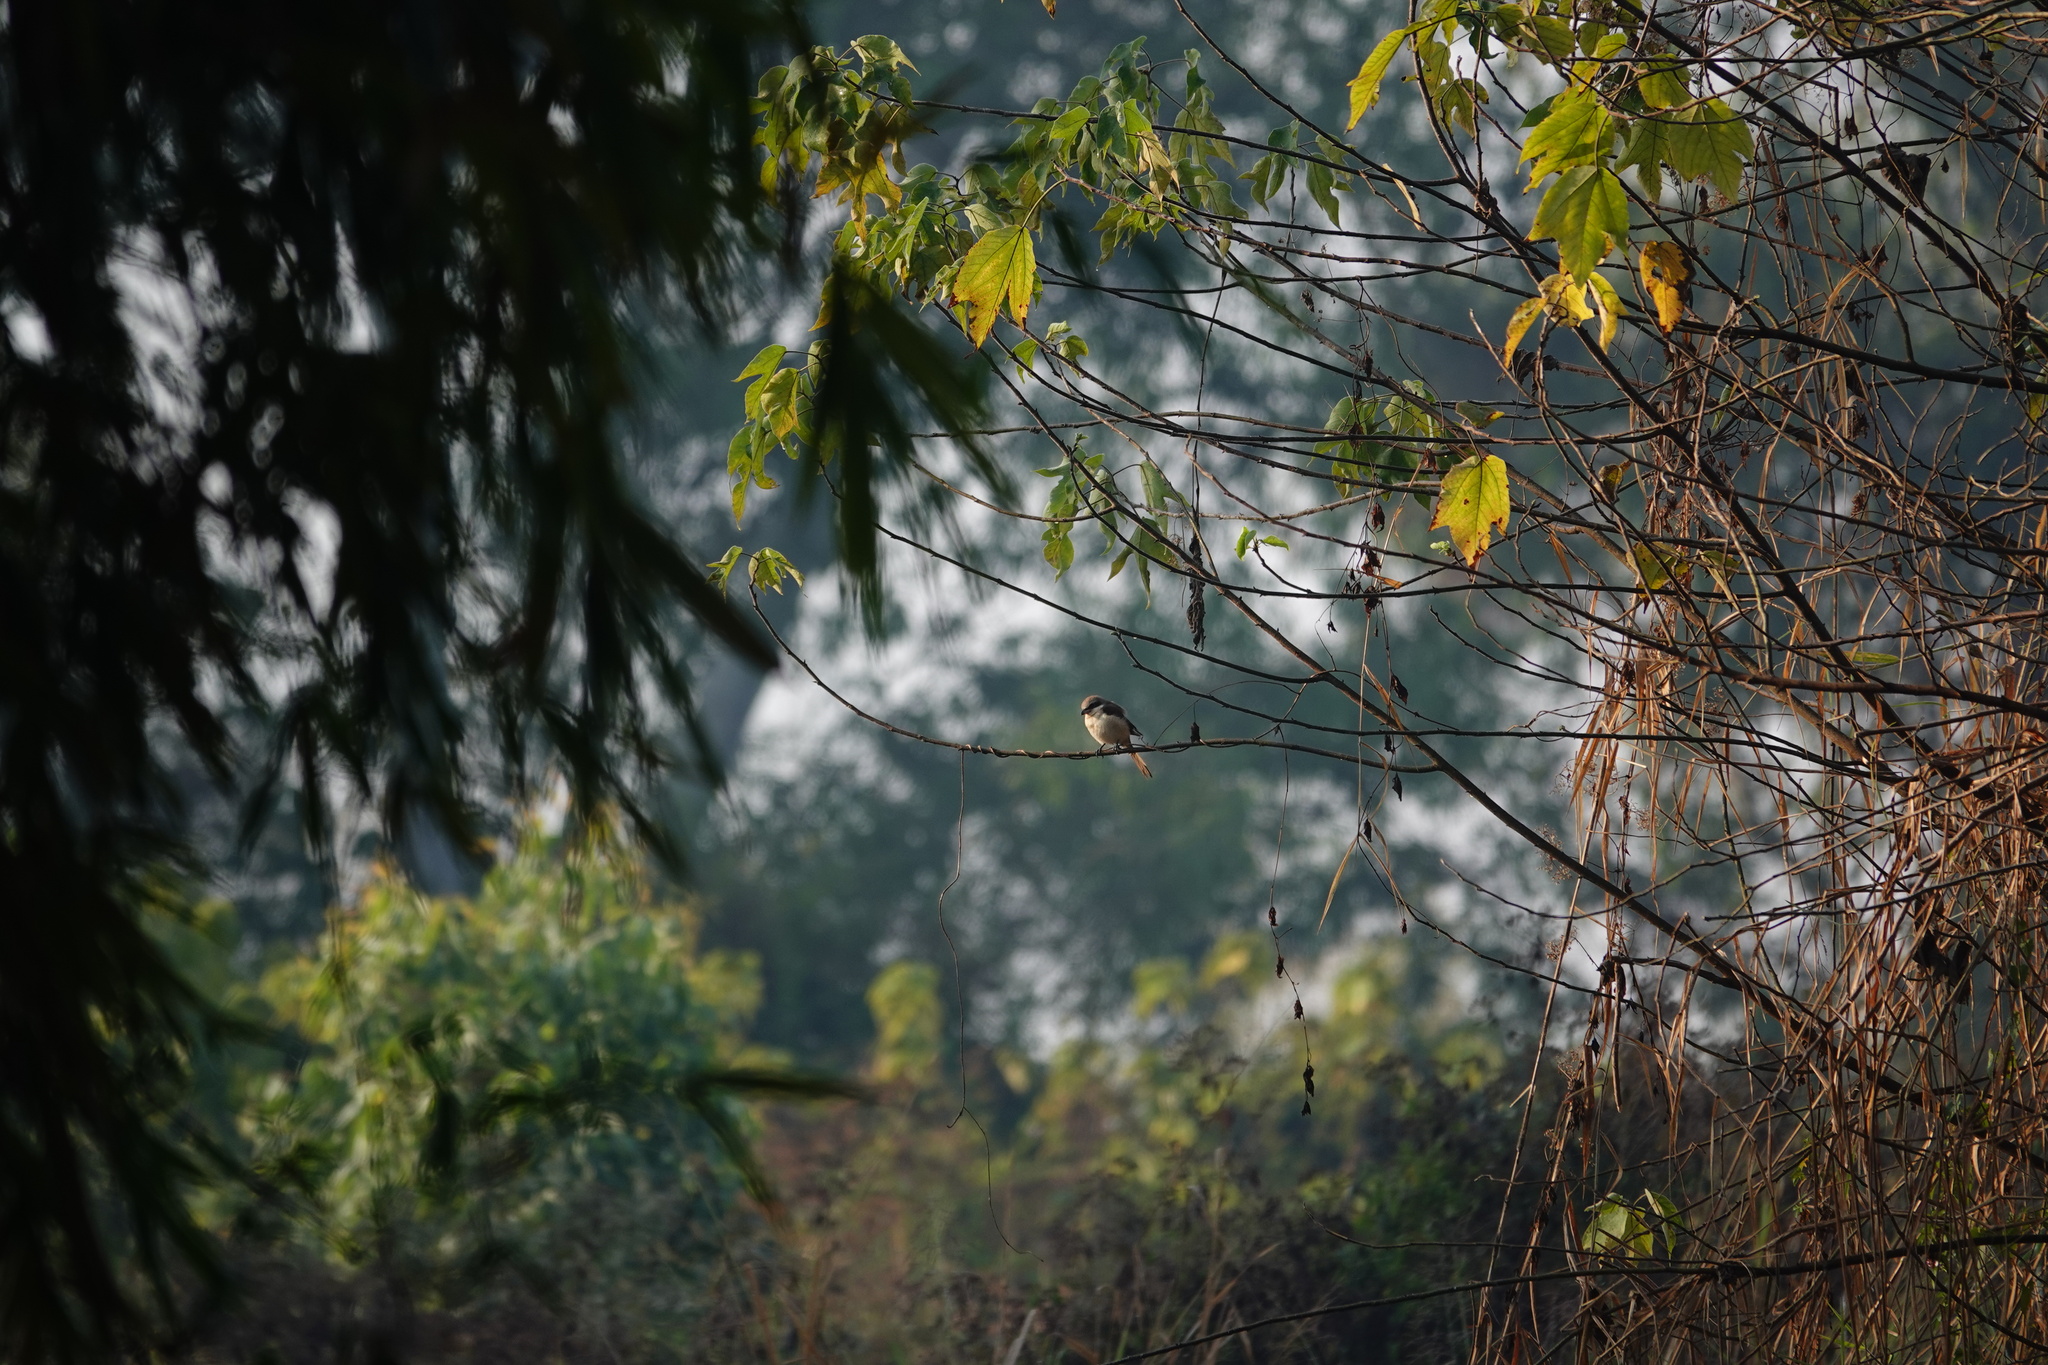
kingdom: Animalia
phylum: Chordata
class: Aves
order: Passeriformes
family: Laniidae
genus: Lanius
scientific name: Lanius cristatus
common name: Brown shrike
